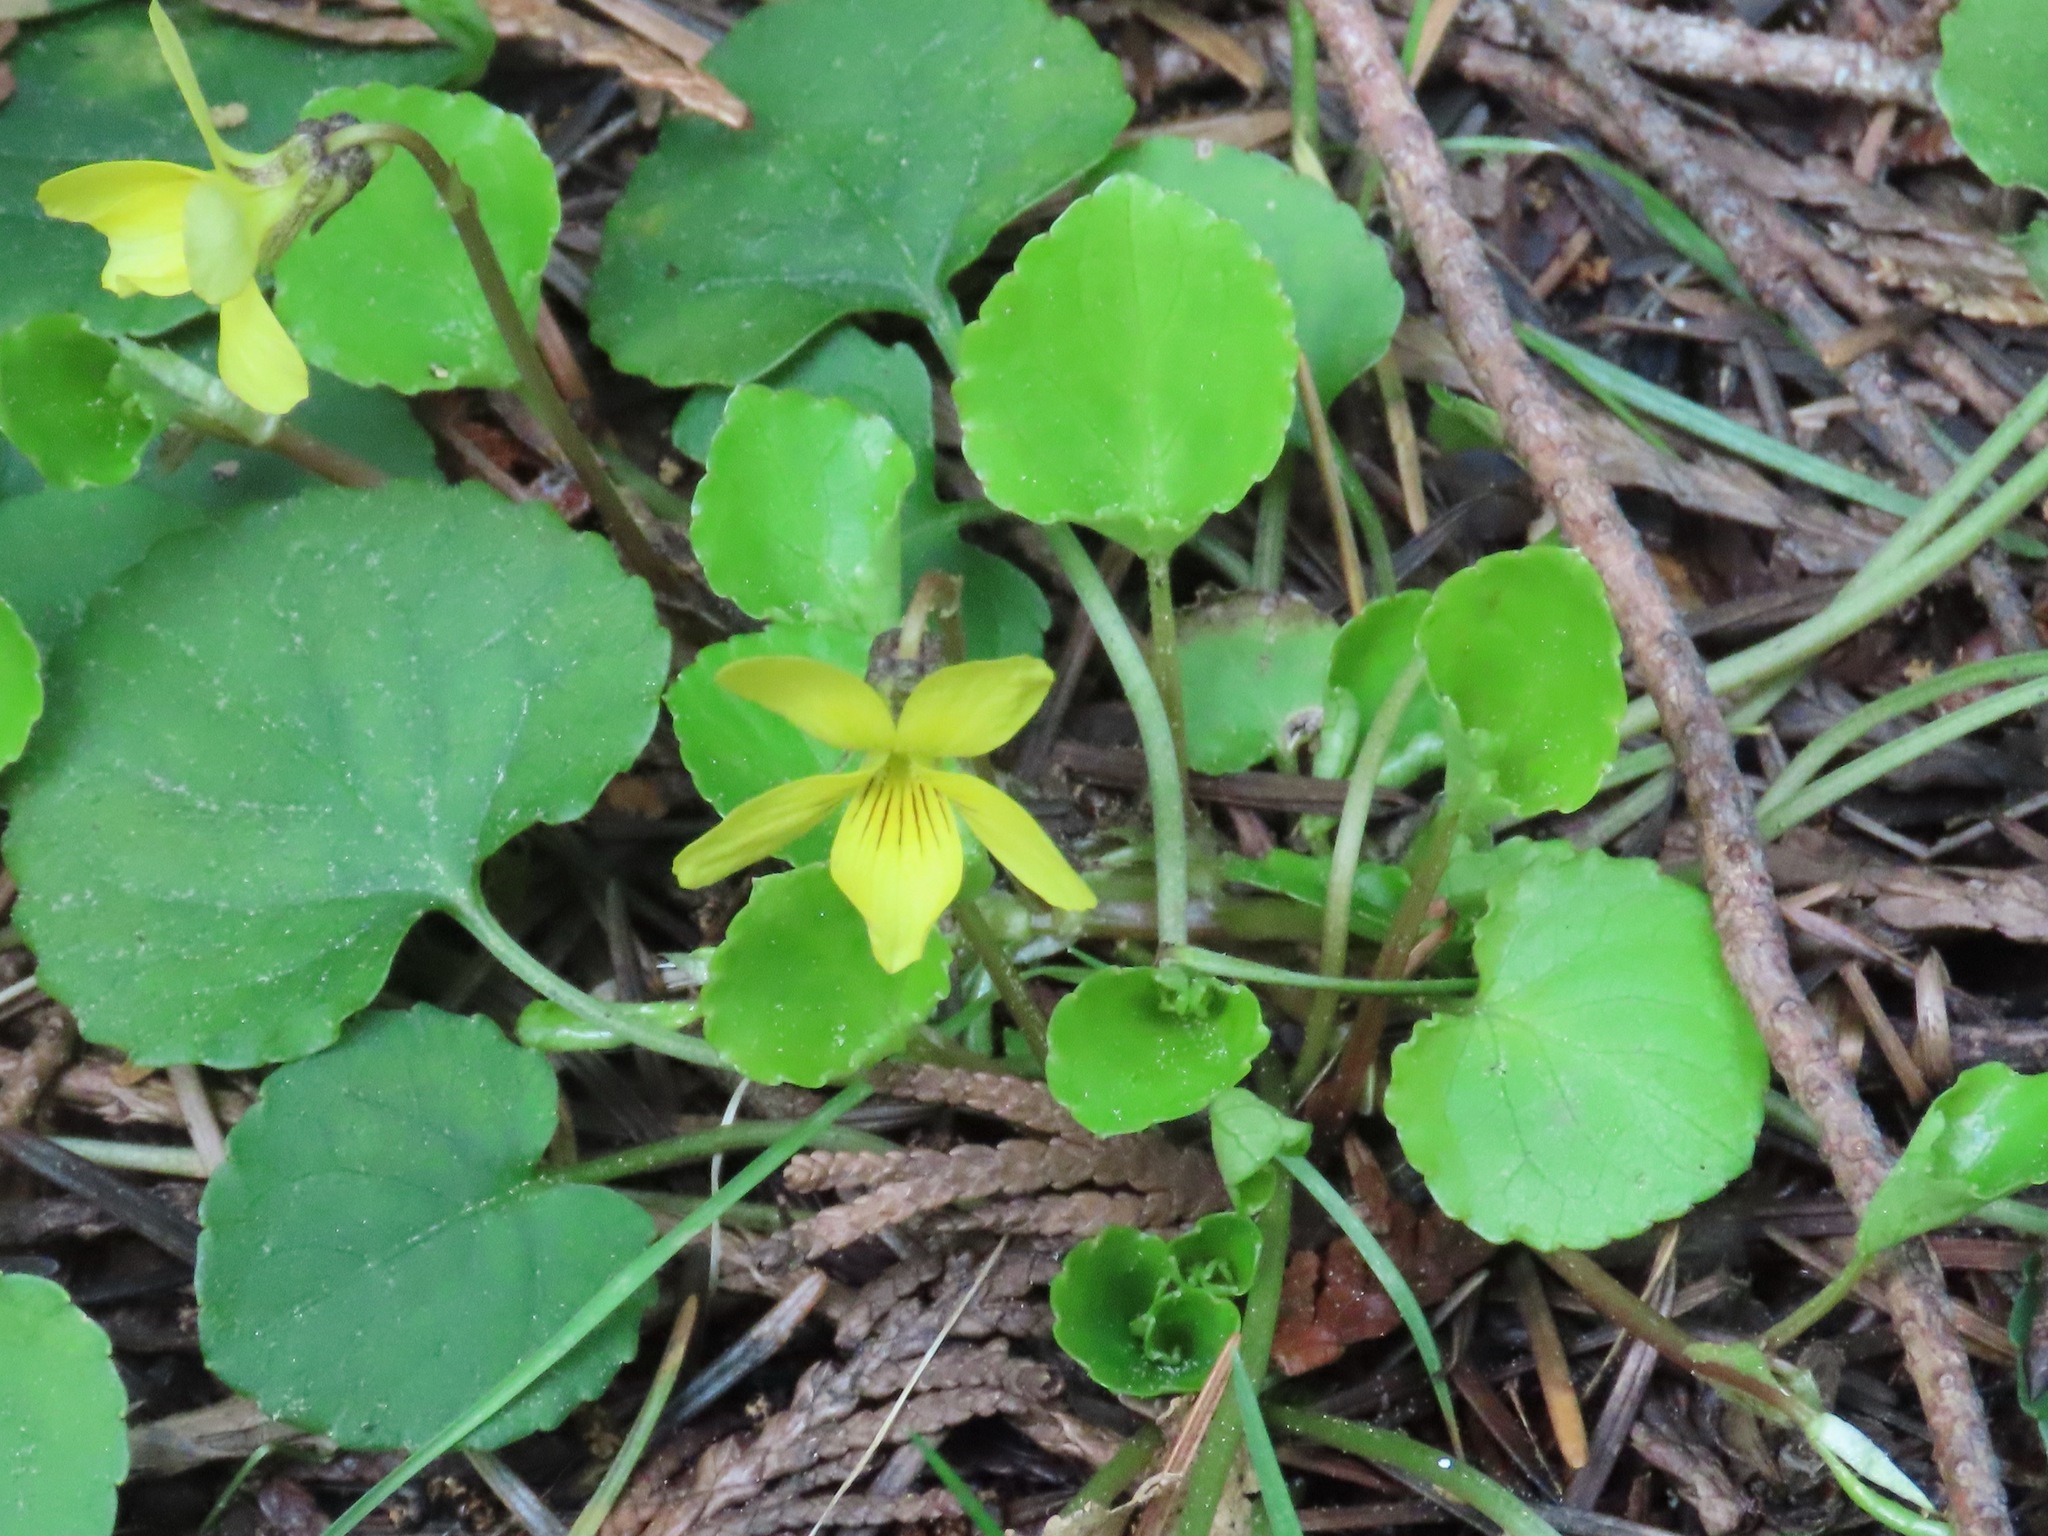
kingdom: Plantae
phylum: Tracheophyta
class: Magnoliopsida
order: Malpighiales
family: Violaceae
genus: Viola
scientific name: Viola sempervirens
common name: Evergreen violet
